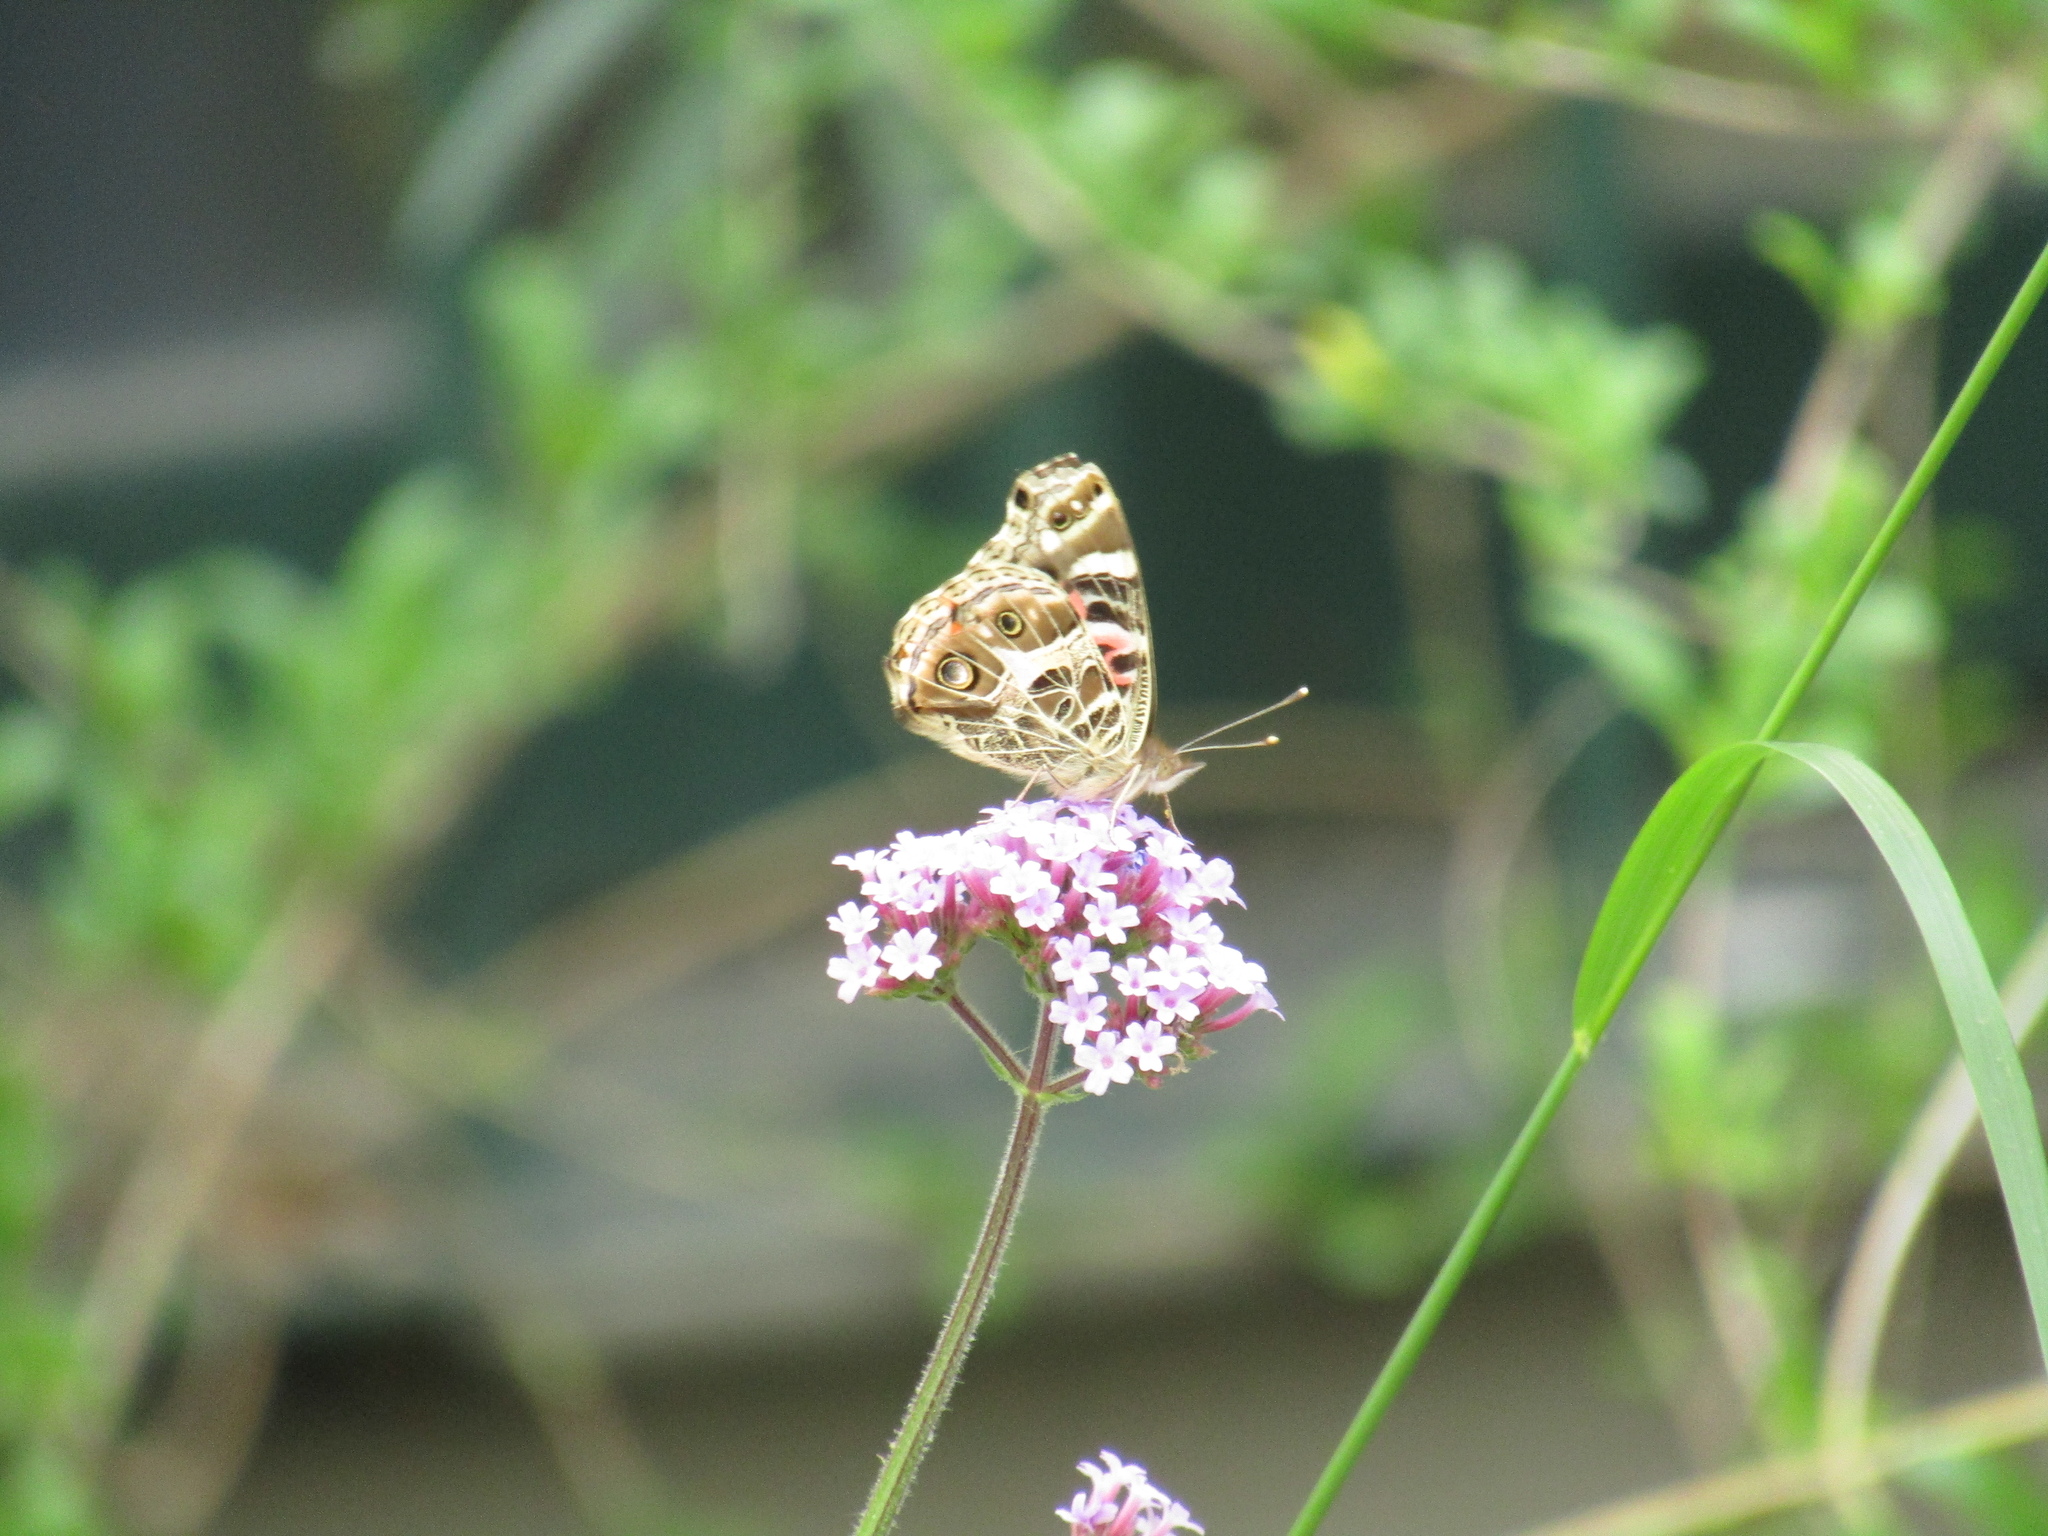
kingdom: Animalia
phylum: Arthropoda
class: Insecta
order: Lepidoptera
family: Nymphalidae
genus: Vanessa
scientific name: Vanessa braziliensis
